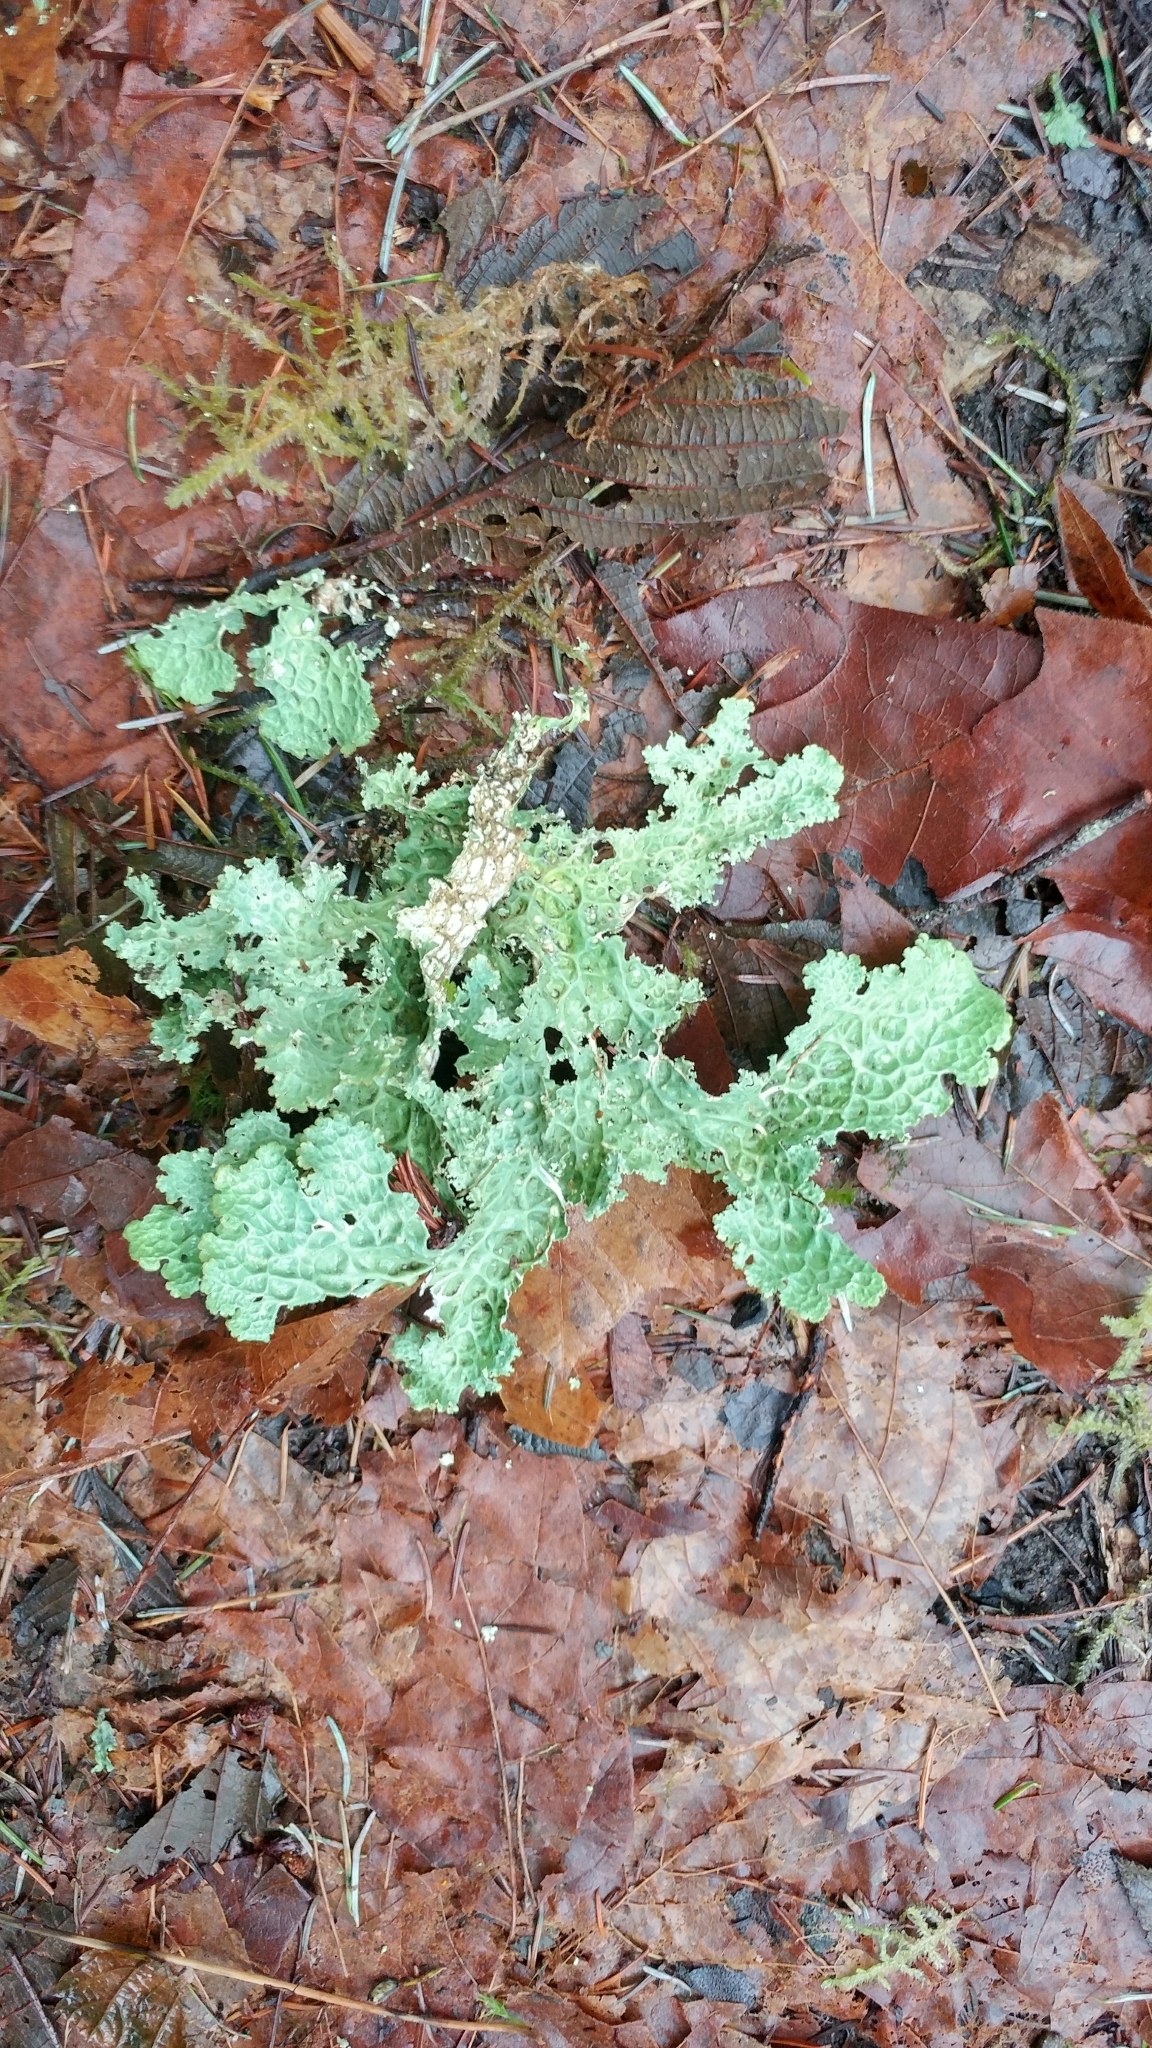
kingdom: Fungi
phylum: Ascomycota
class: Lecanoromycetes
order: Peltigerales
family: Lobariaceae
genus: Lobaria
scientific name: Lobaria oregana
